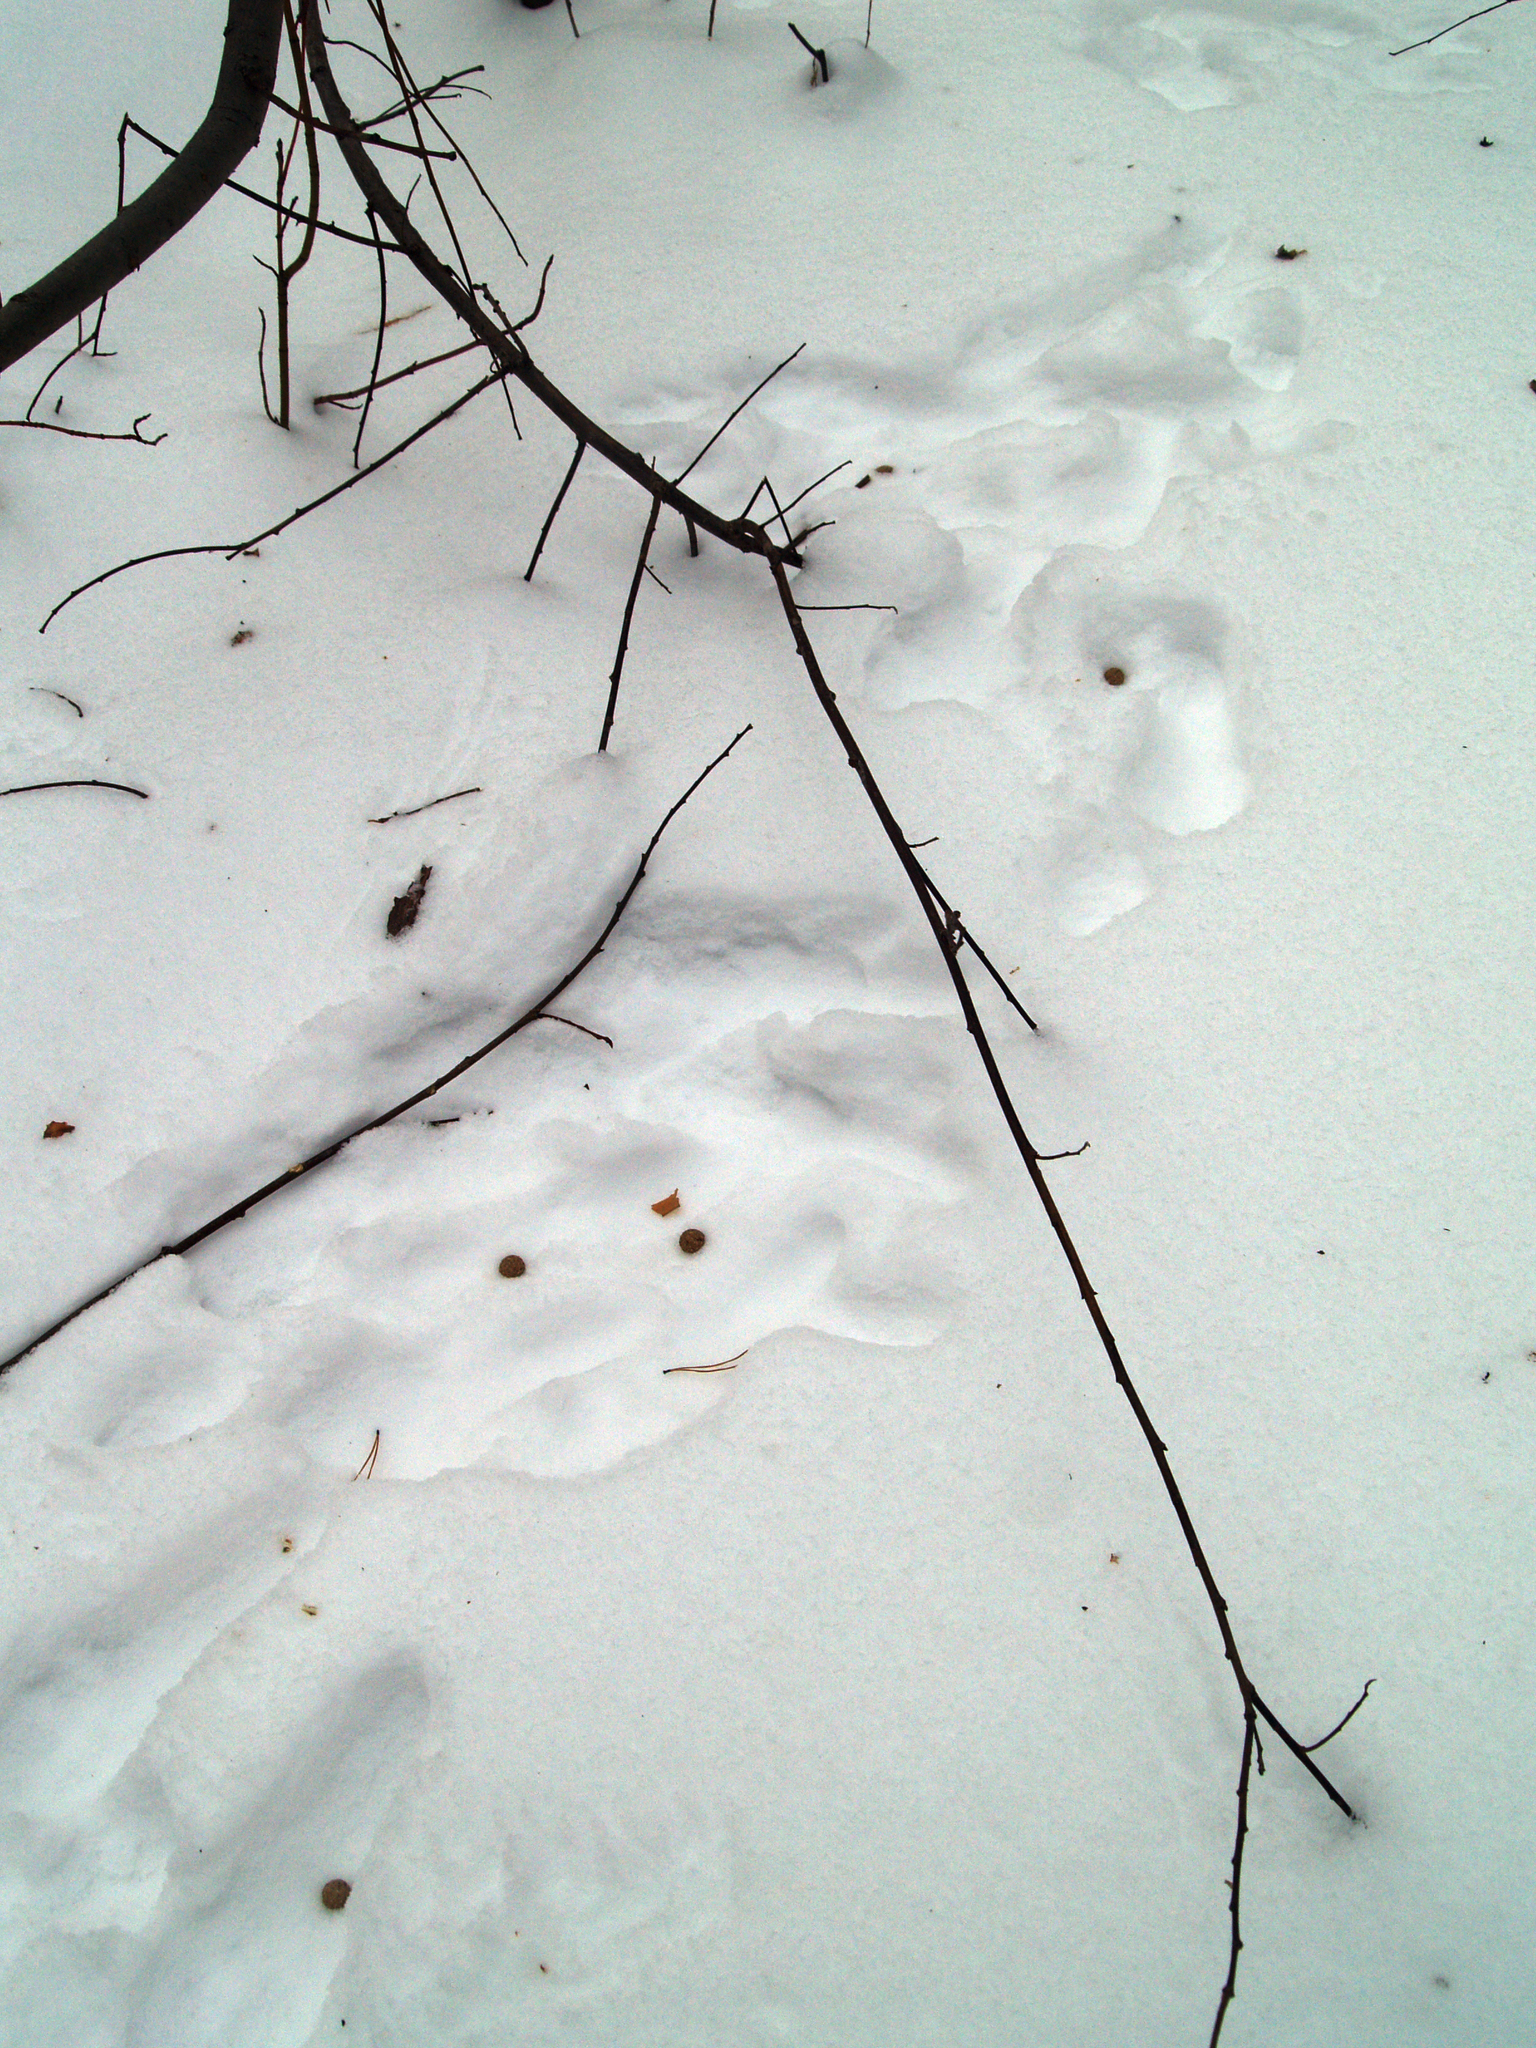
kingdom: Animalia
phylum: Chordata
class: Mammalia
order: Lagomorpha
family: Leporidae
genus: Lepus
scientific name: Lepus timidus
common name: Mountain hare
